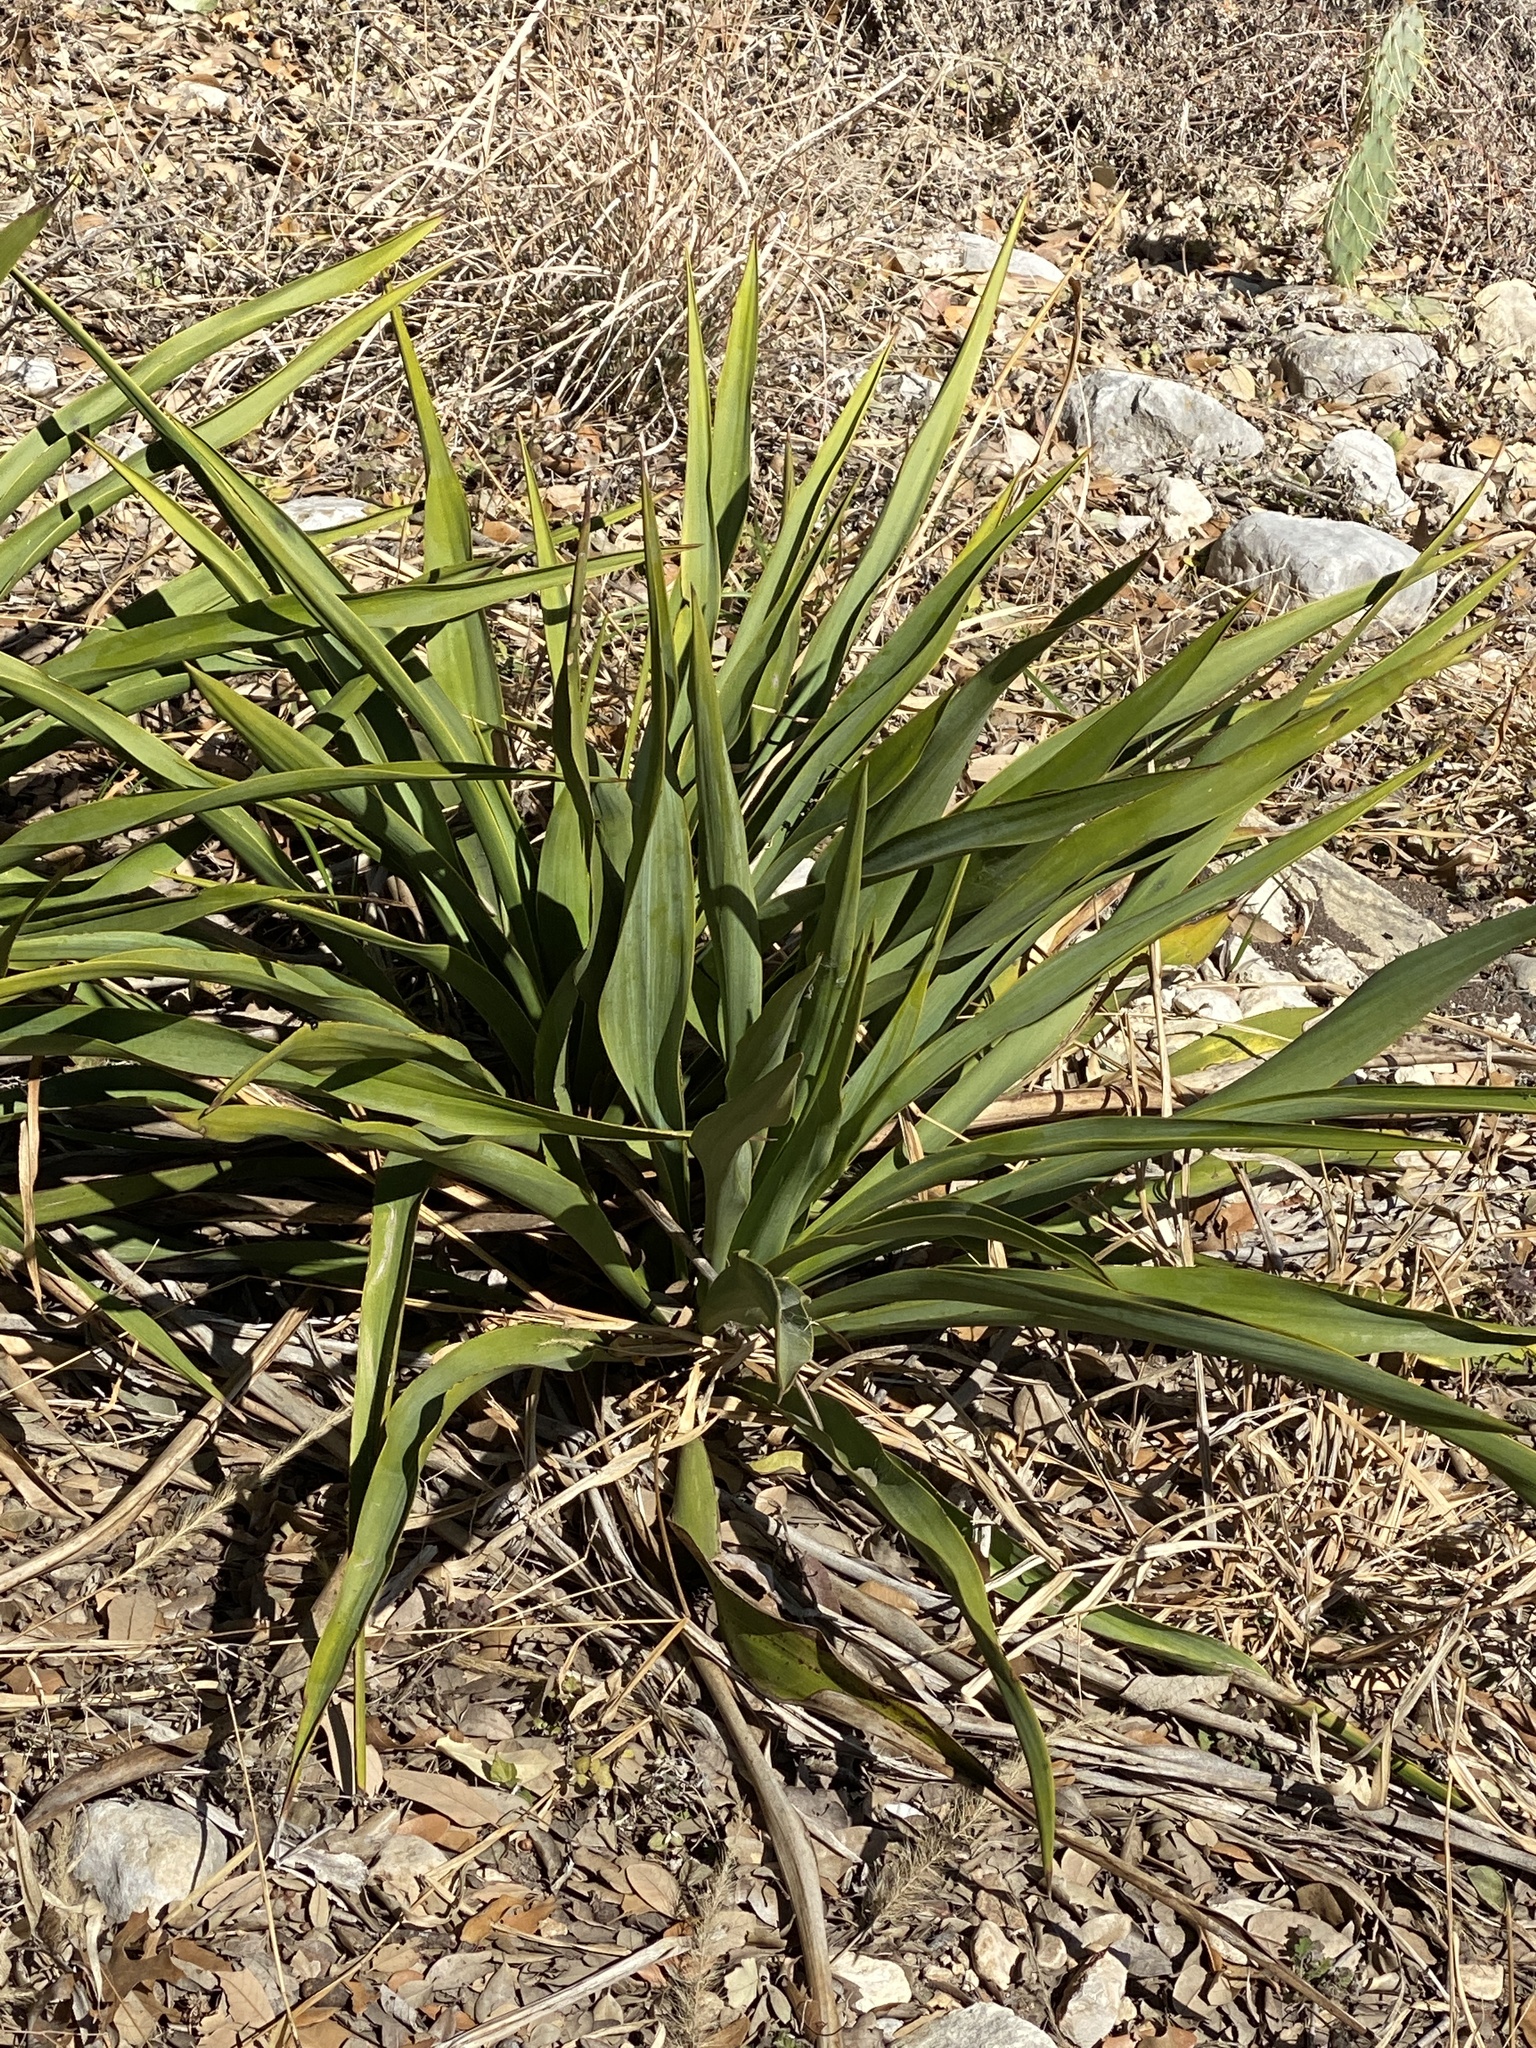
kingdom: Plantae
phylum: Tracheophyta
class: Liliopsida
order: Asparagales
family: Asparagaceae
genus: Yucca
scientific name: Yucca rupicola
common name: Twisted-leaf spanish-dagger
